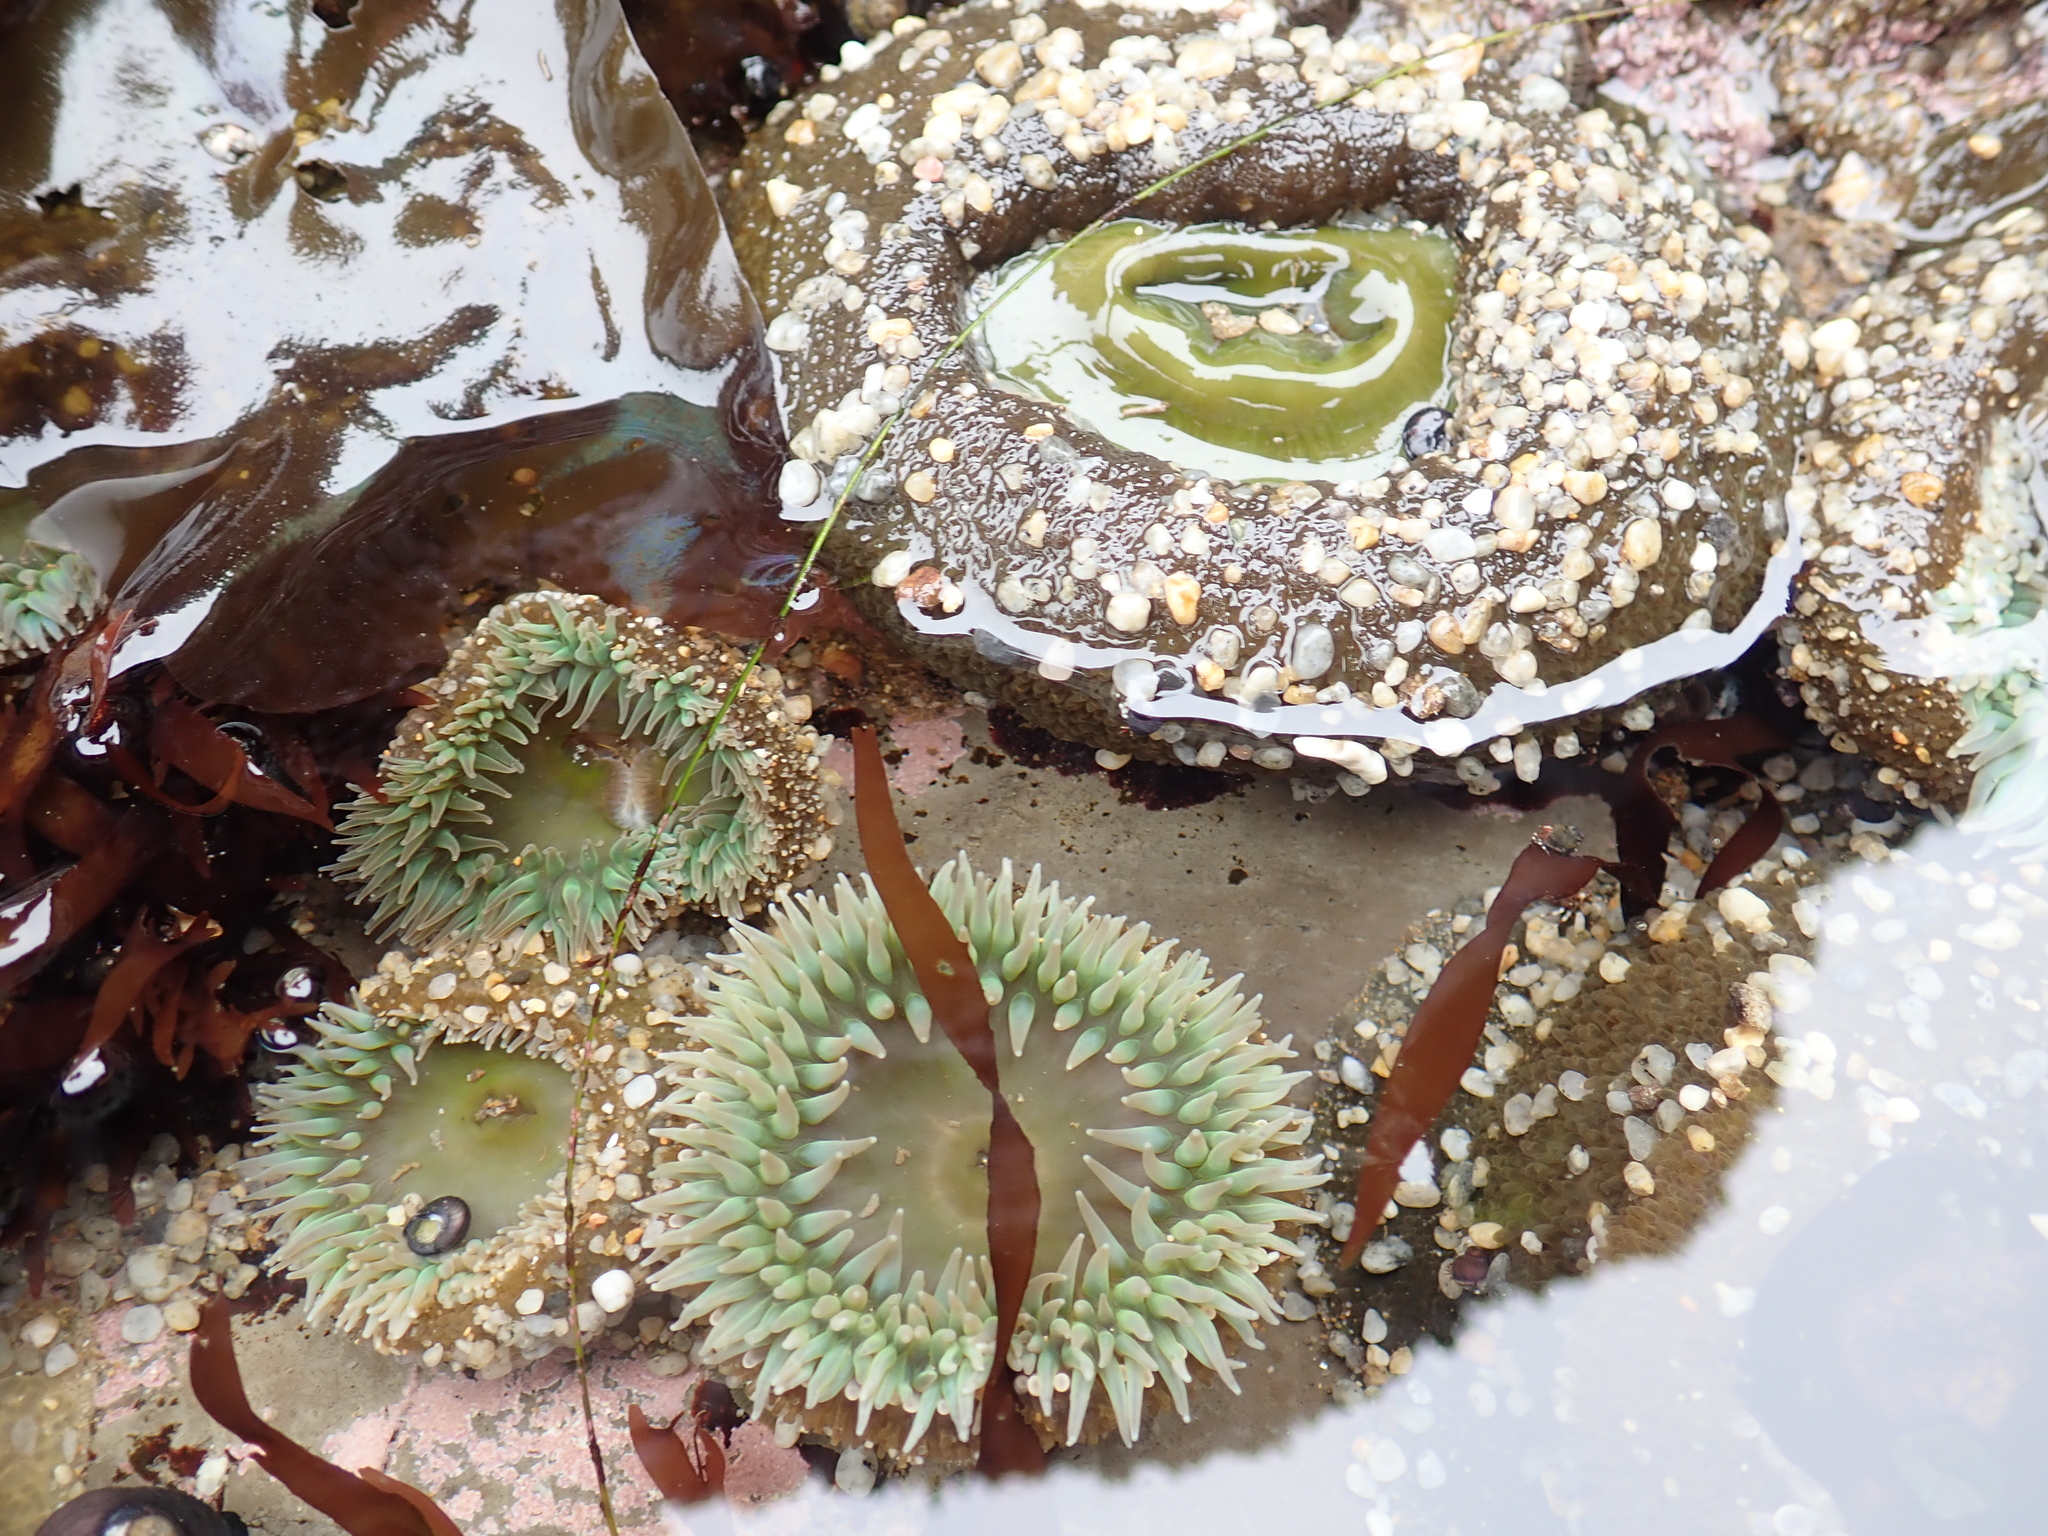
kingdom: Animalia
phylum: Cnidaria
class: Anthozoa
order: Actiniaria
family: Actiniidae
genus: Anthopleura
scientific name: Anthopleura xanthogrammica
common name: Giant green anemone
